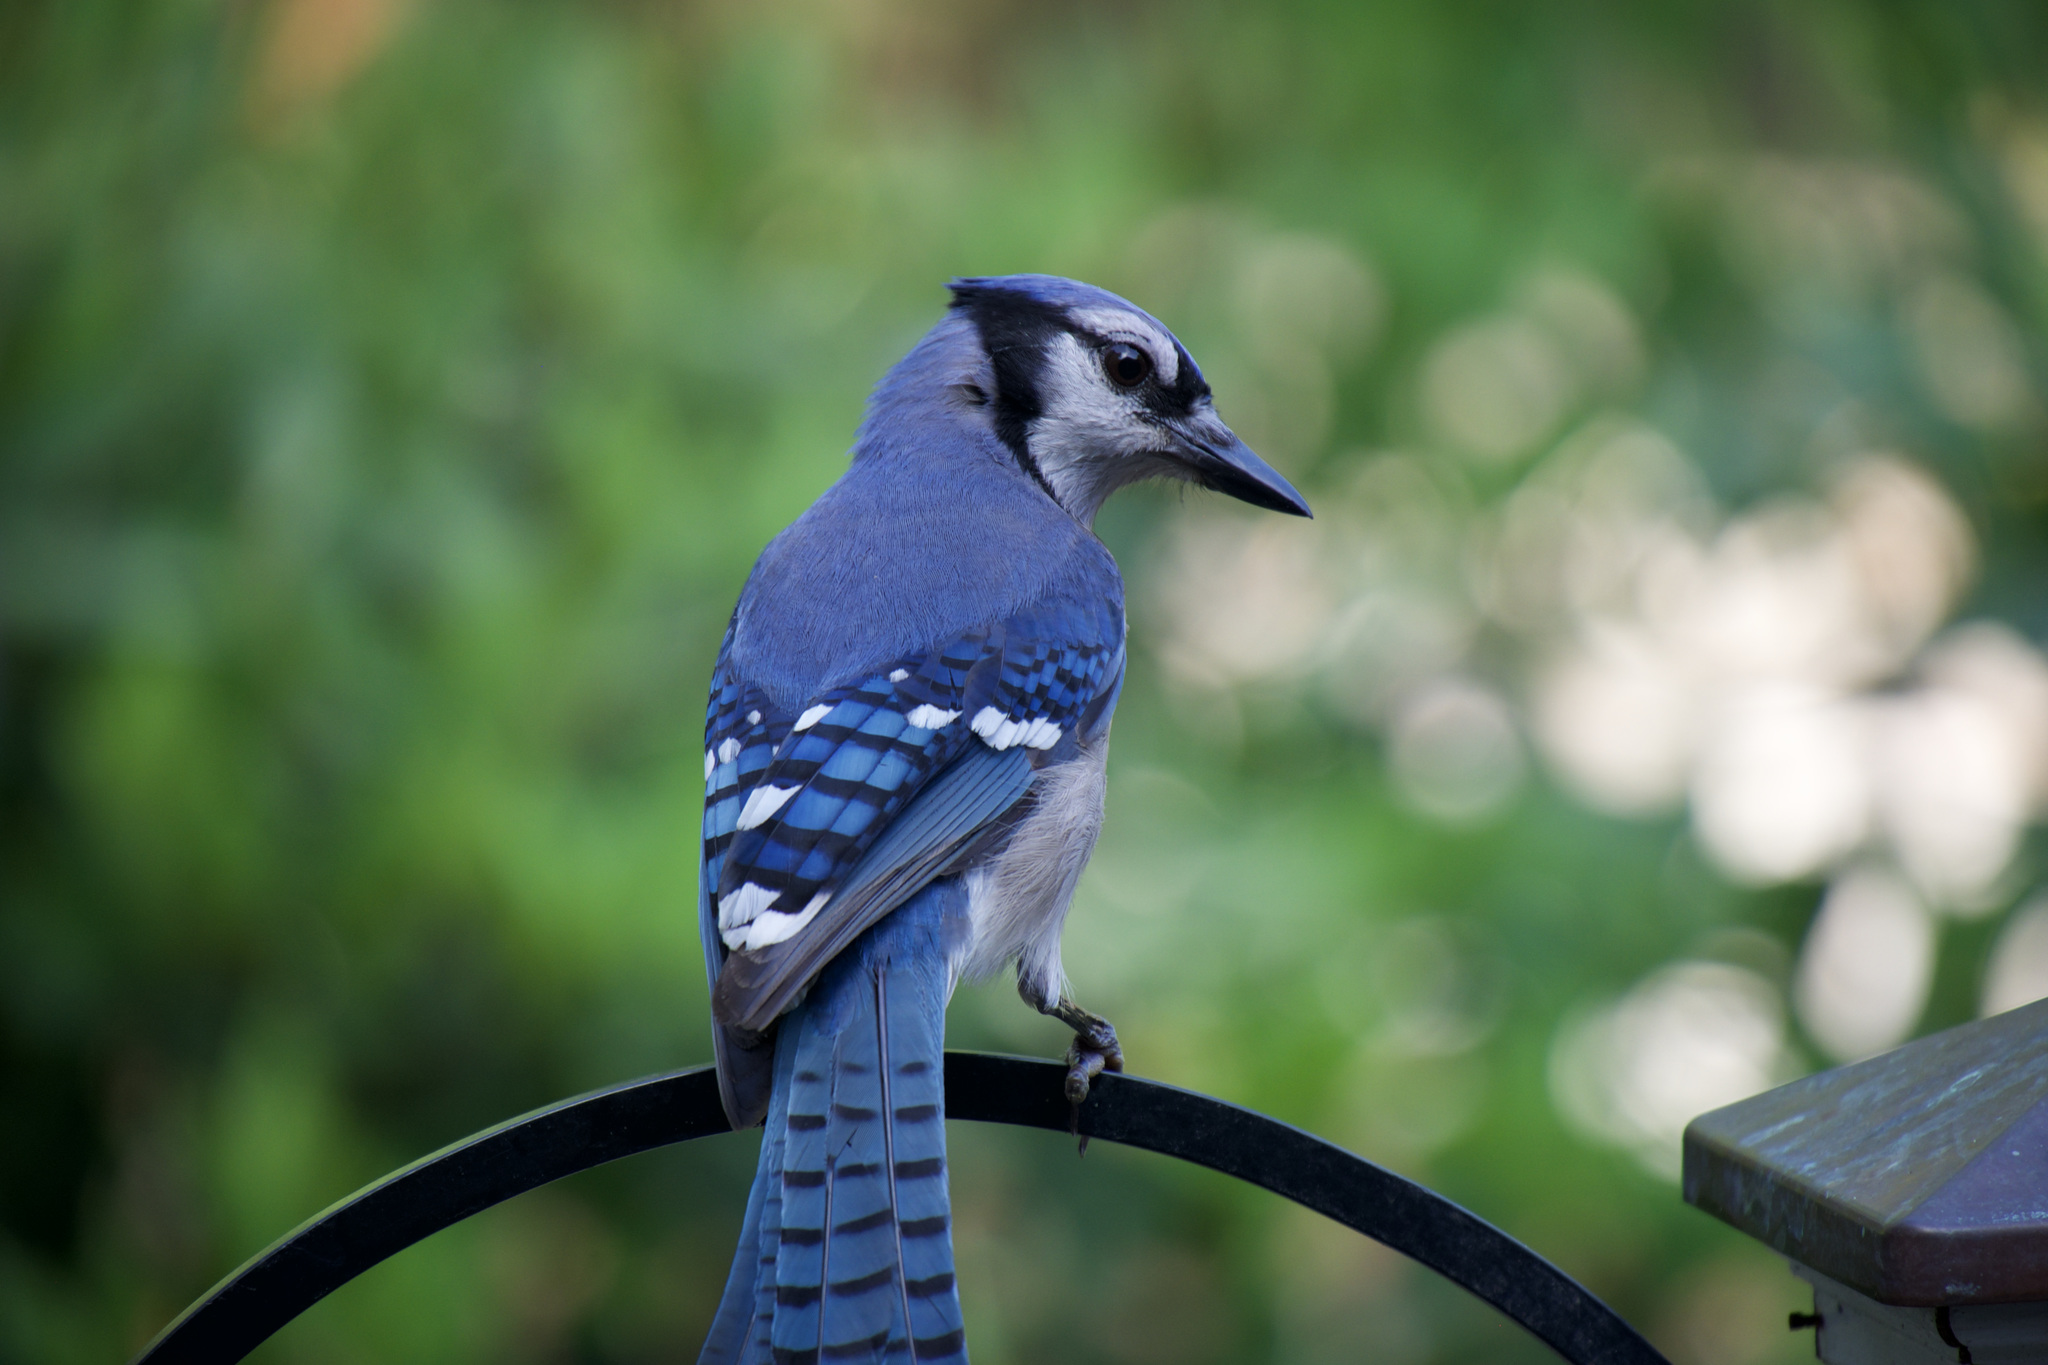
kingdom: Animalia
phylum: Chordata
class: Aves
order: Passeriformes
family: Corvidae
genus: Cyanocitta
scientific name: Cyanocitta cristata
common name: Blue jay
